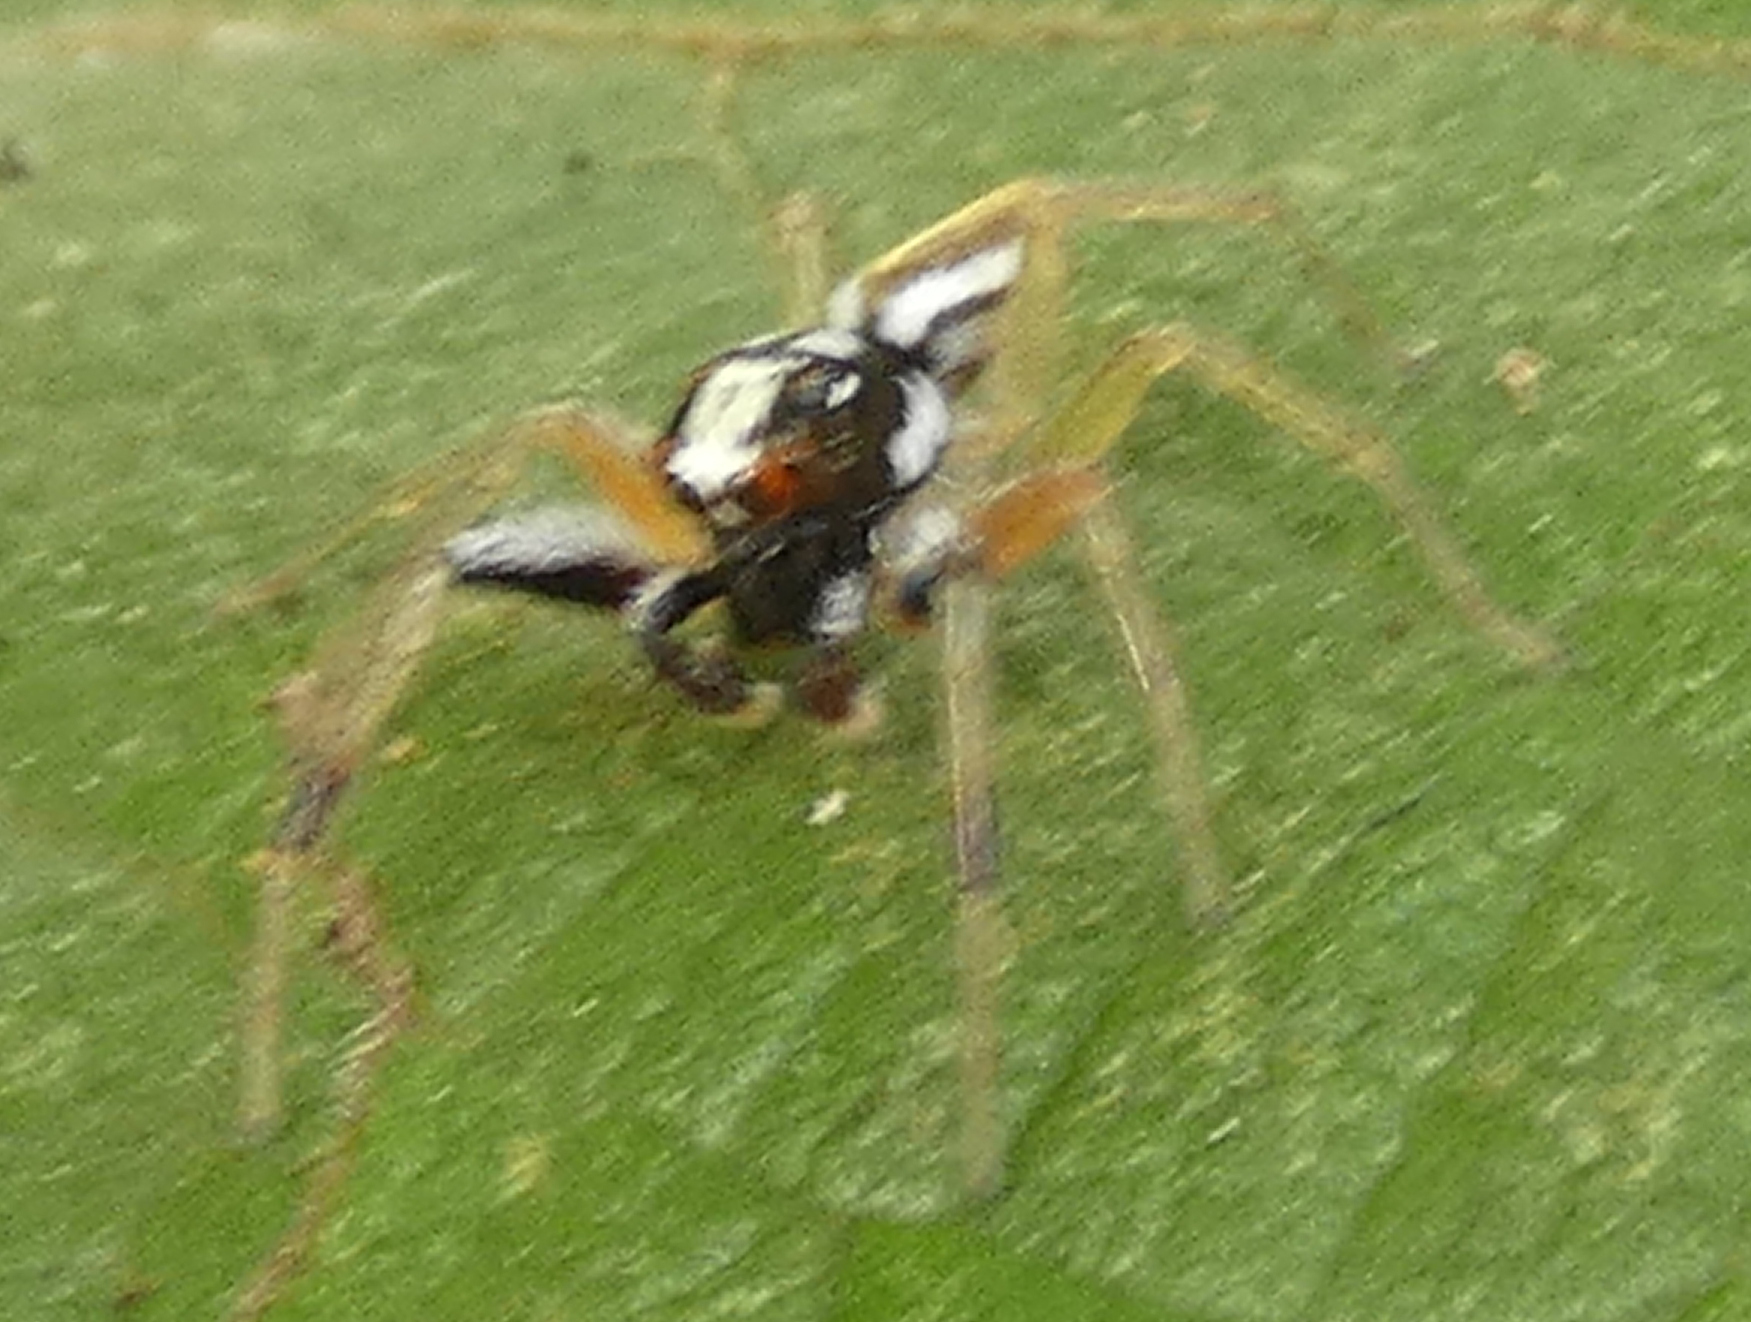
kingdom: Animalia
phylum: Arthropoda
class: Arachnida
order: Araneae
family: Salticidae
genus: Chira
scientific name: Chira spinosa
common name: Jumping spiders
